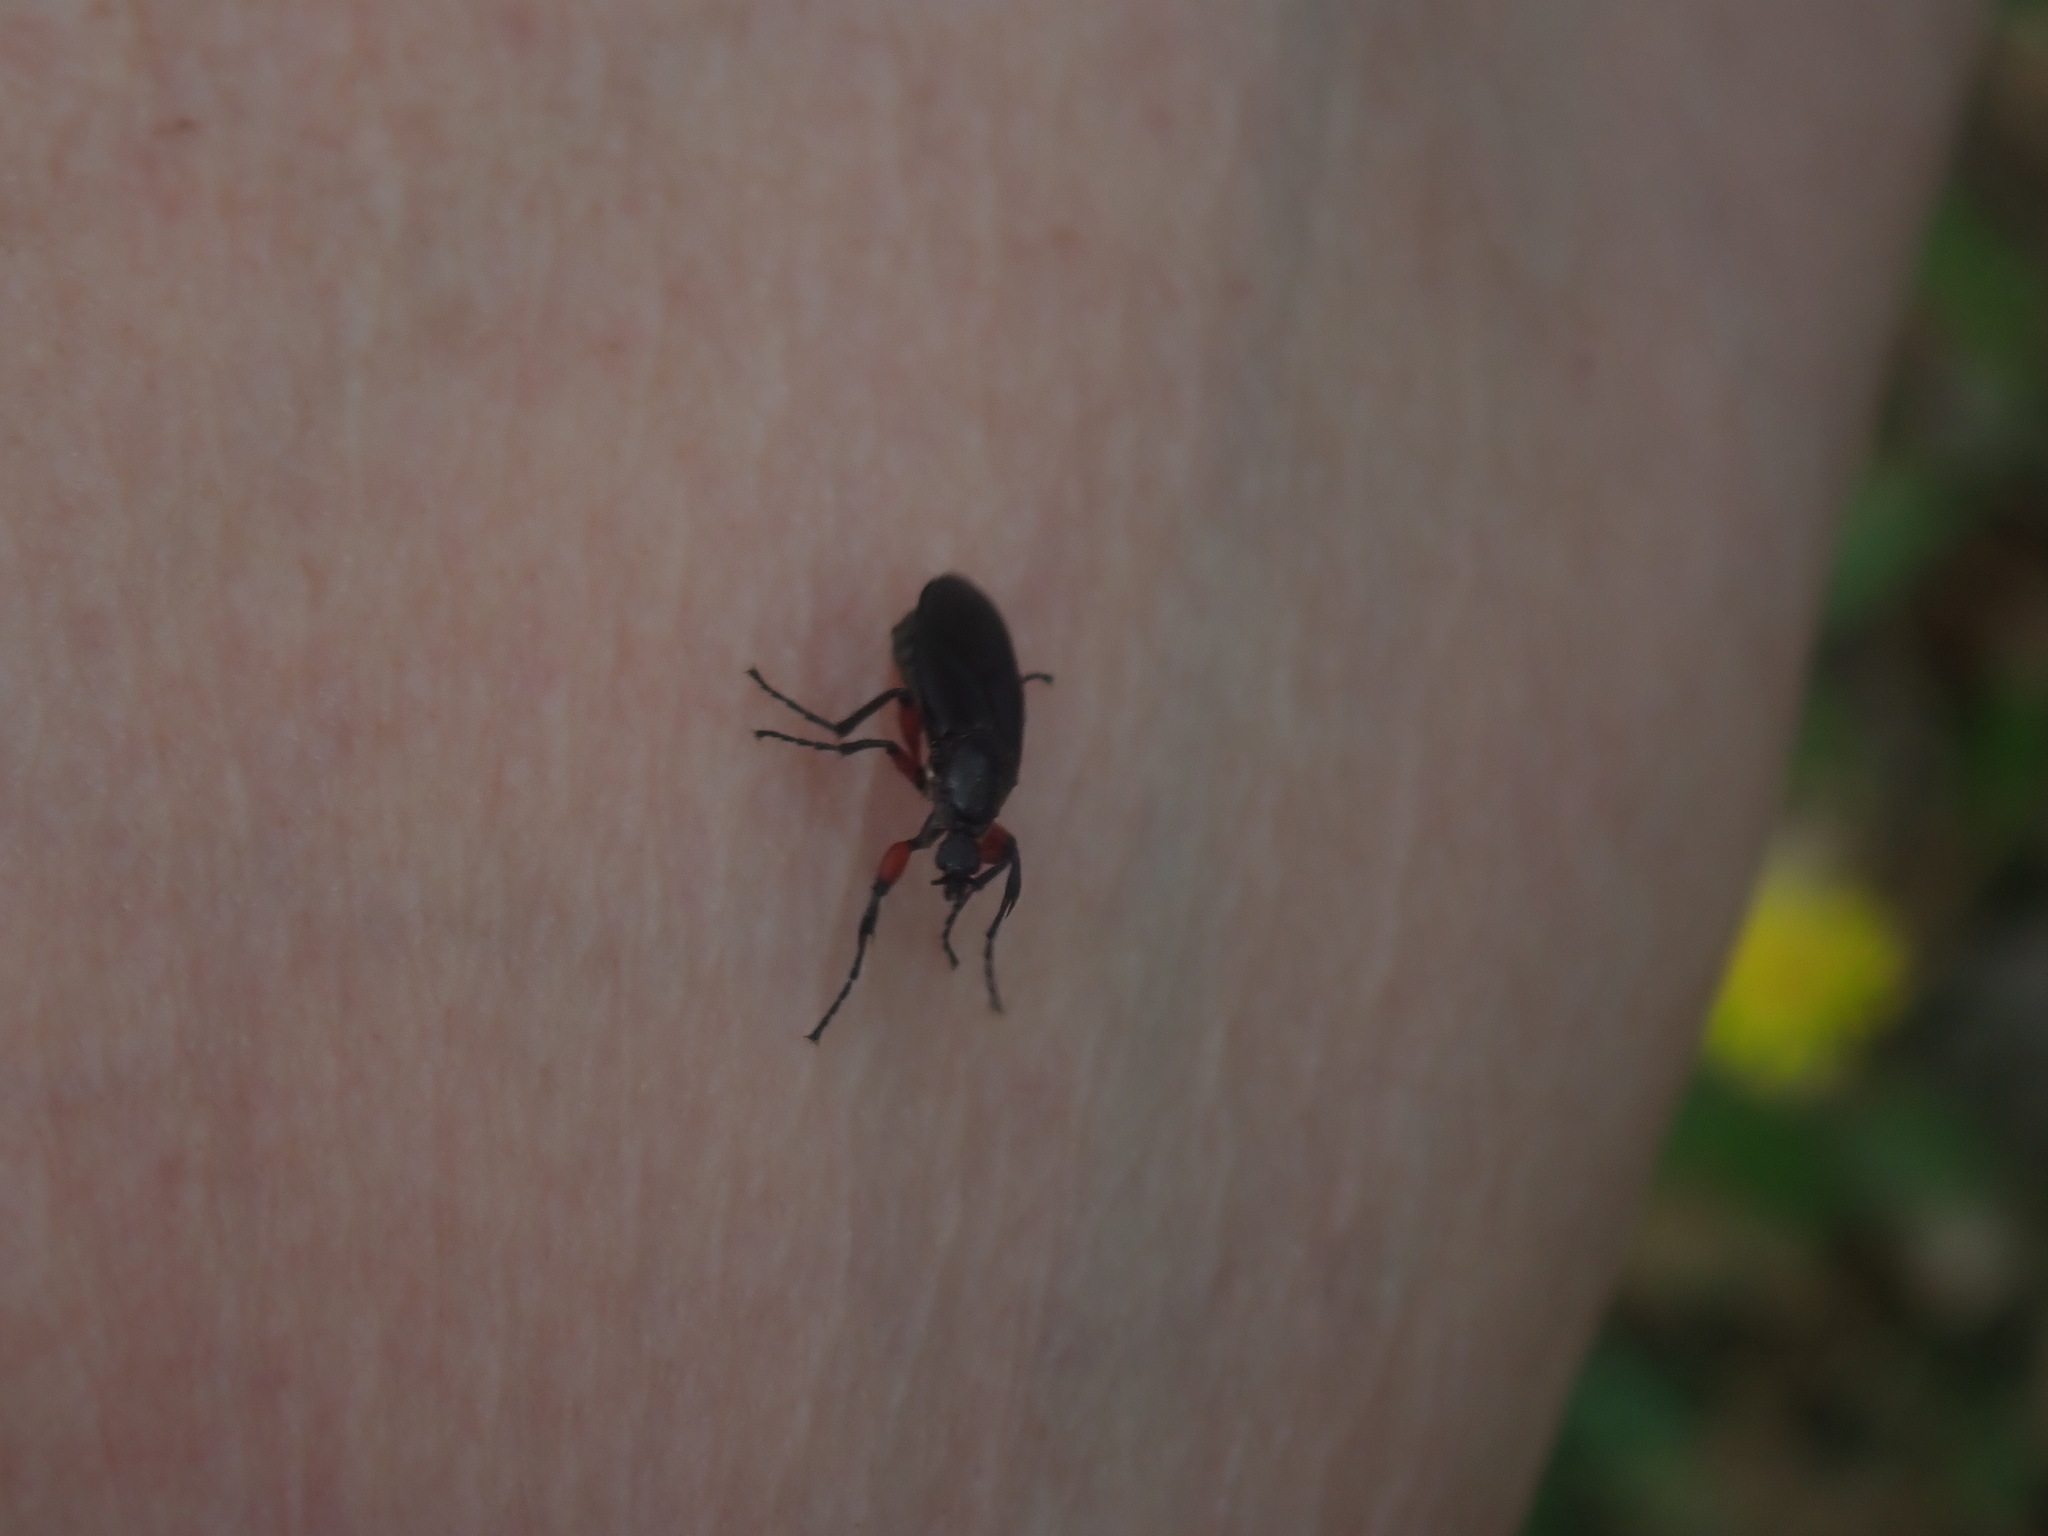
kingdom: Animalia
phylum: Arthropoda
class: Insecta
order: Diptera
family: Bibionidae
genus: Bibio
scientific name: Bibio femoratus
